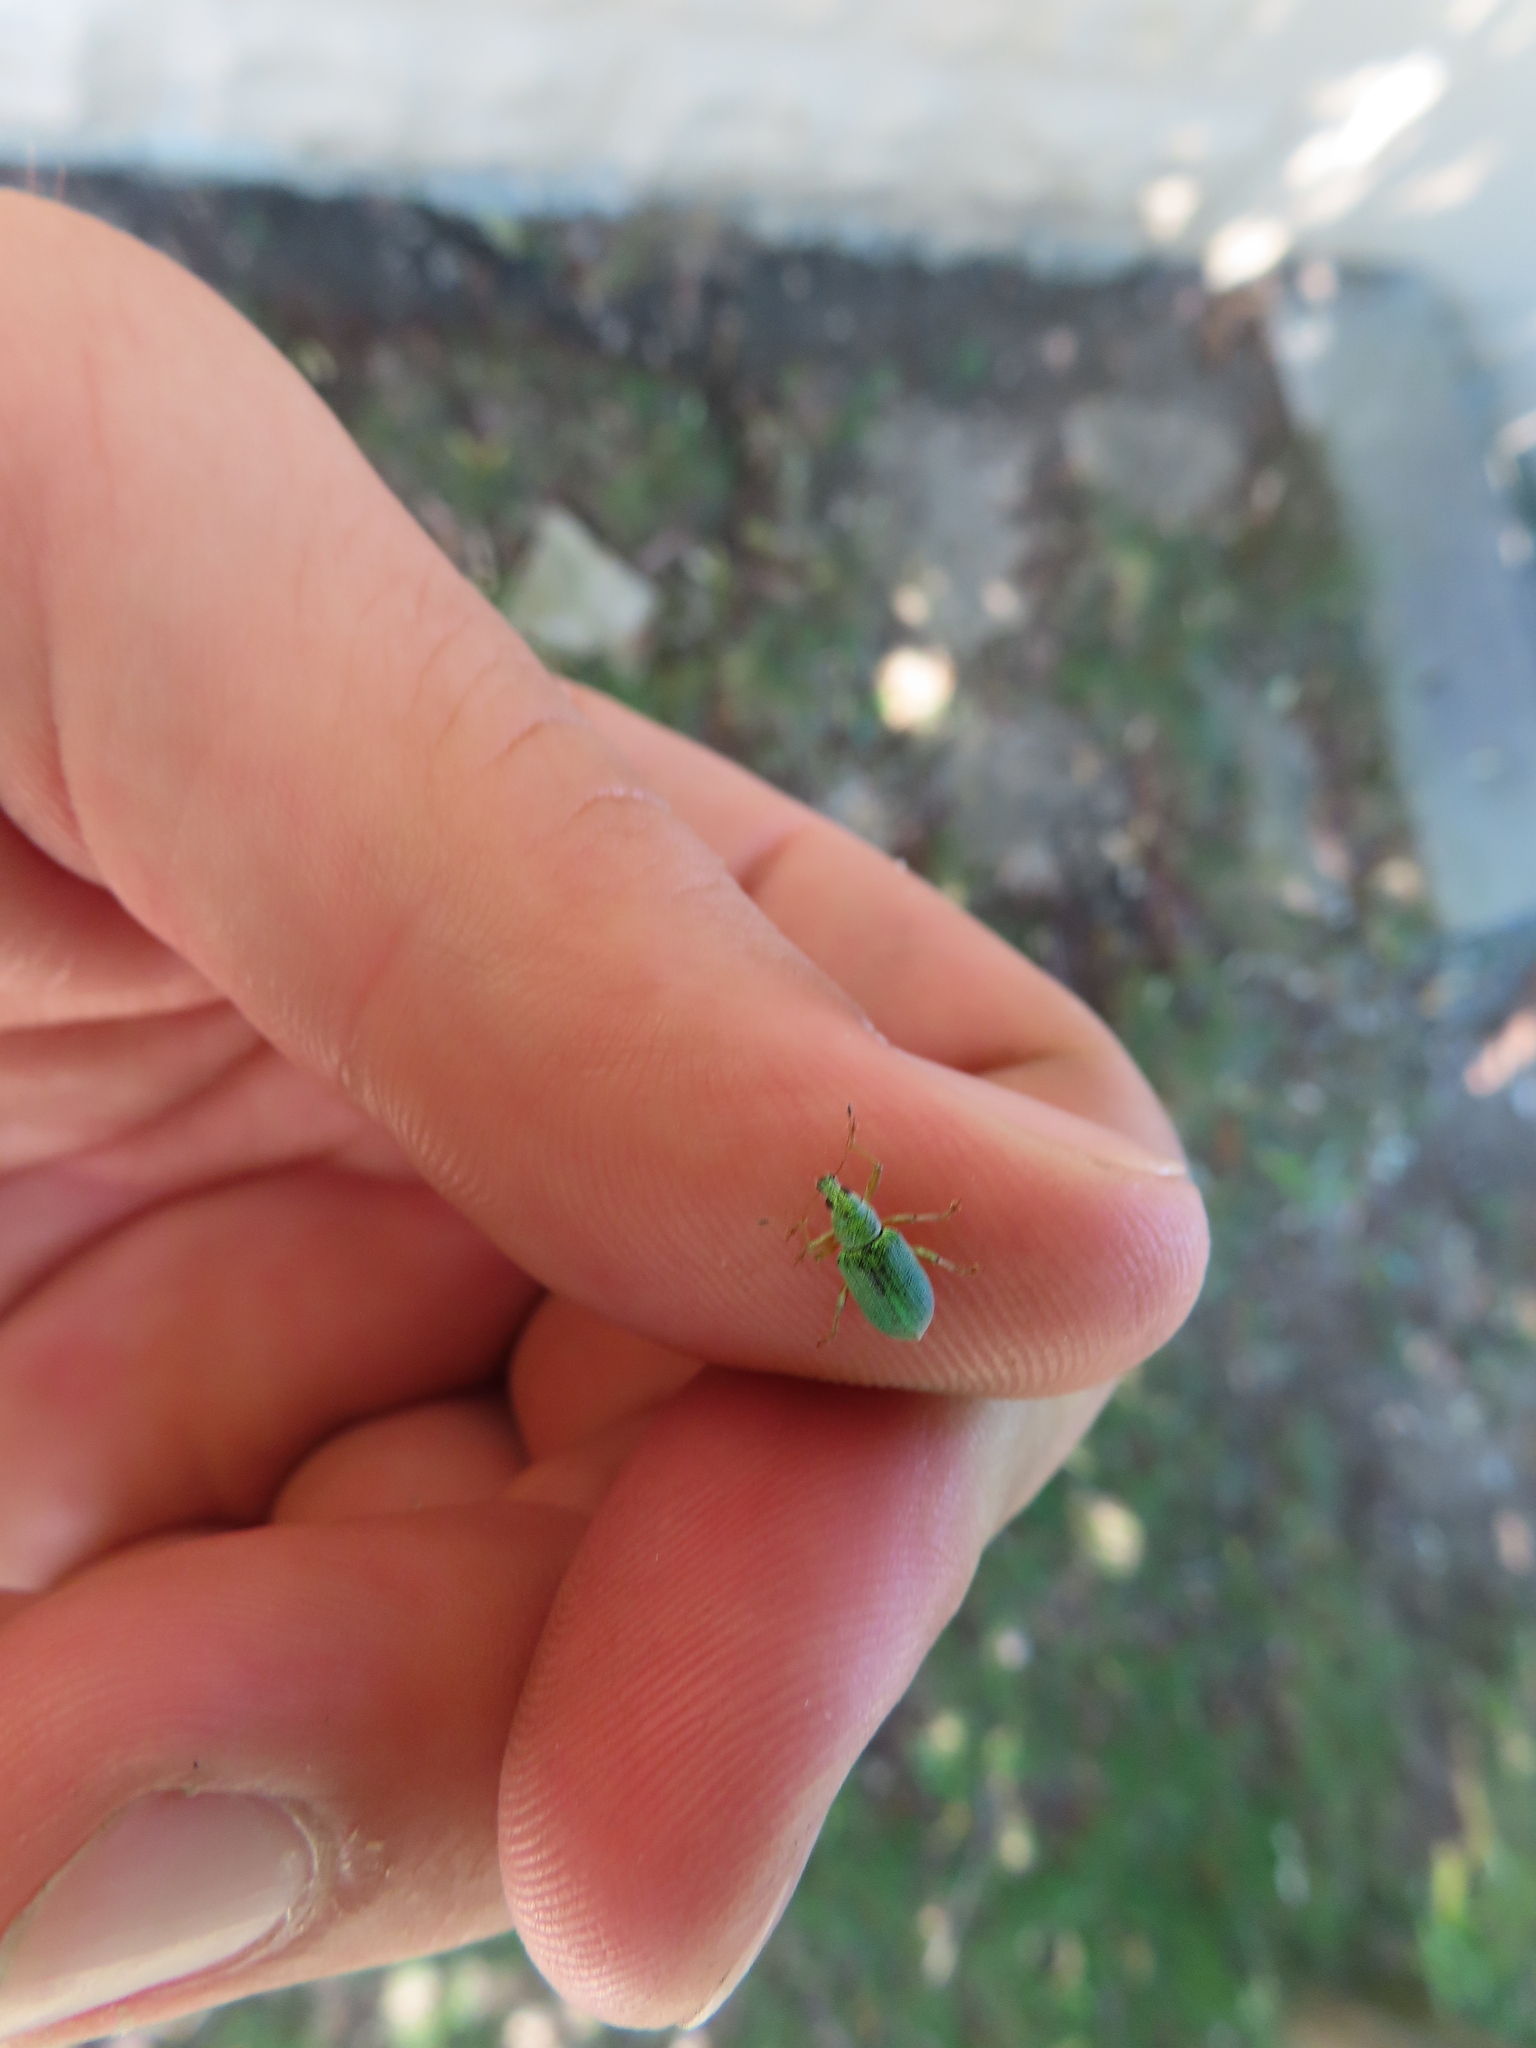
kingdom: Animalia
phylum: Arthropoda
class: Insecta
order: Coleoptera
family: Curculionidae
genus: Polydrusus
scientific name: Polydrusus formosus
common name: Weevil
